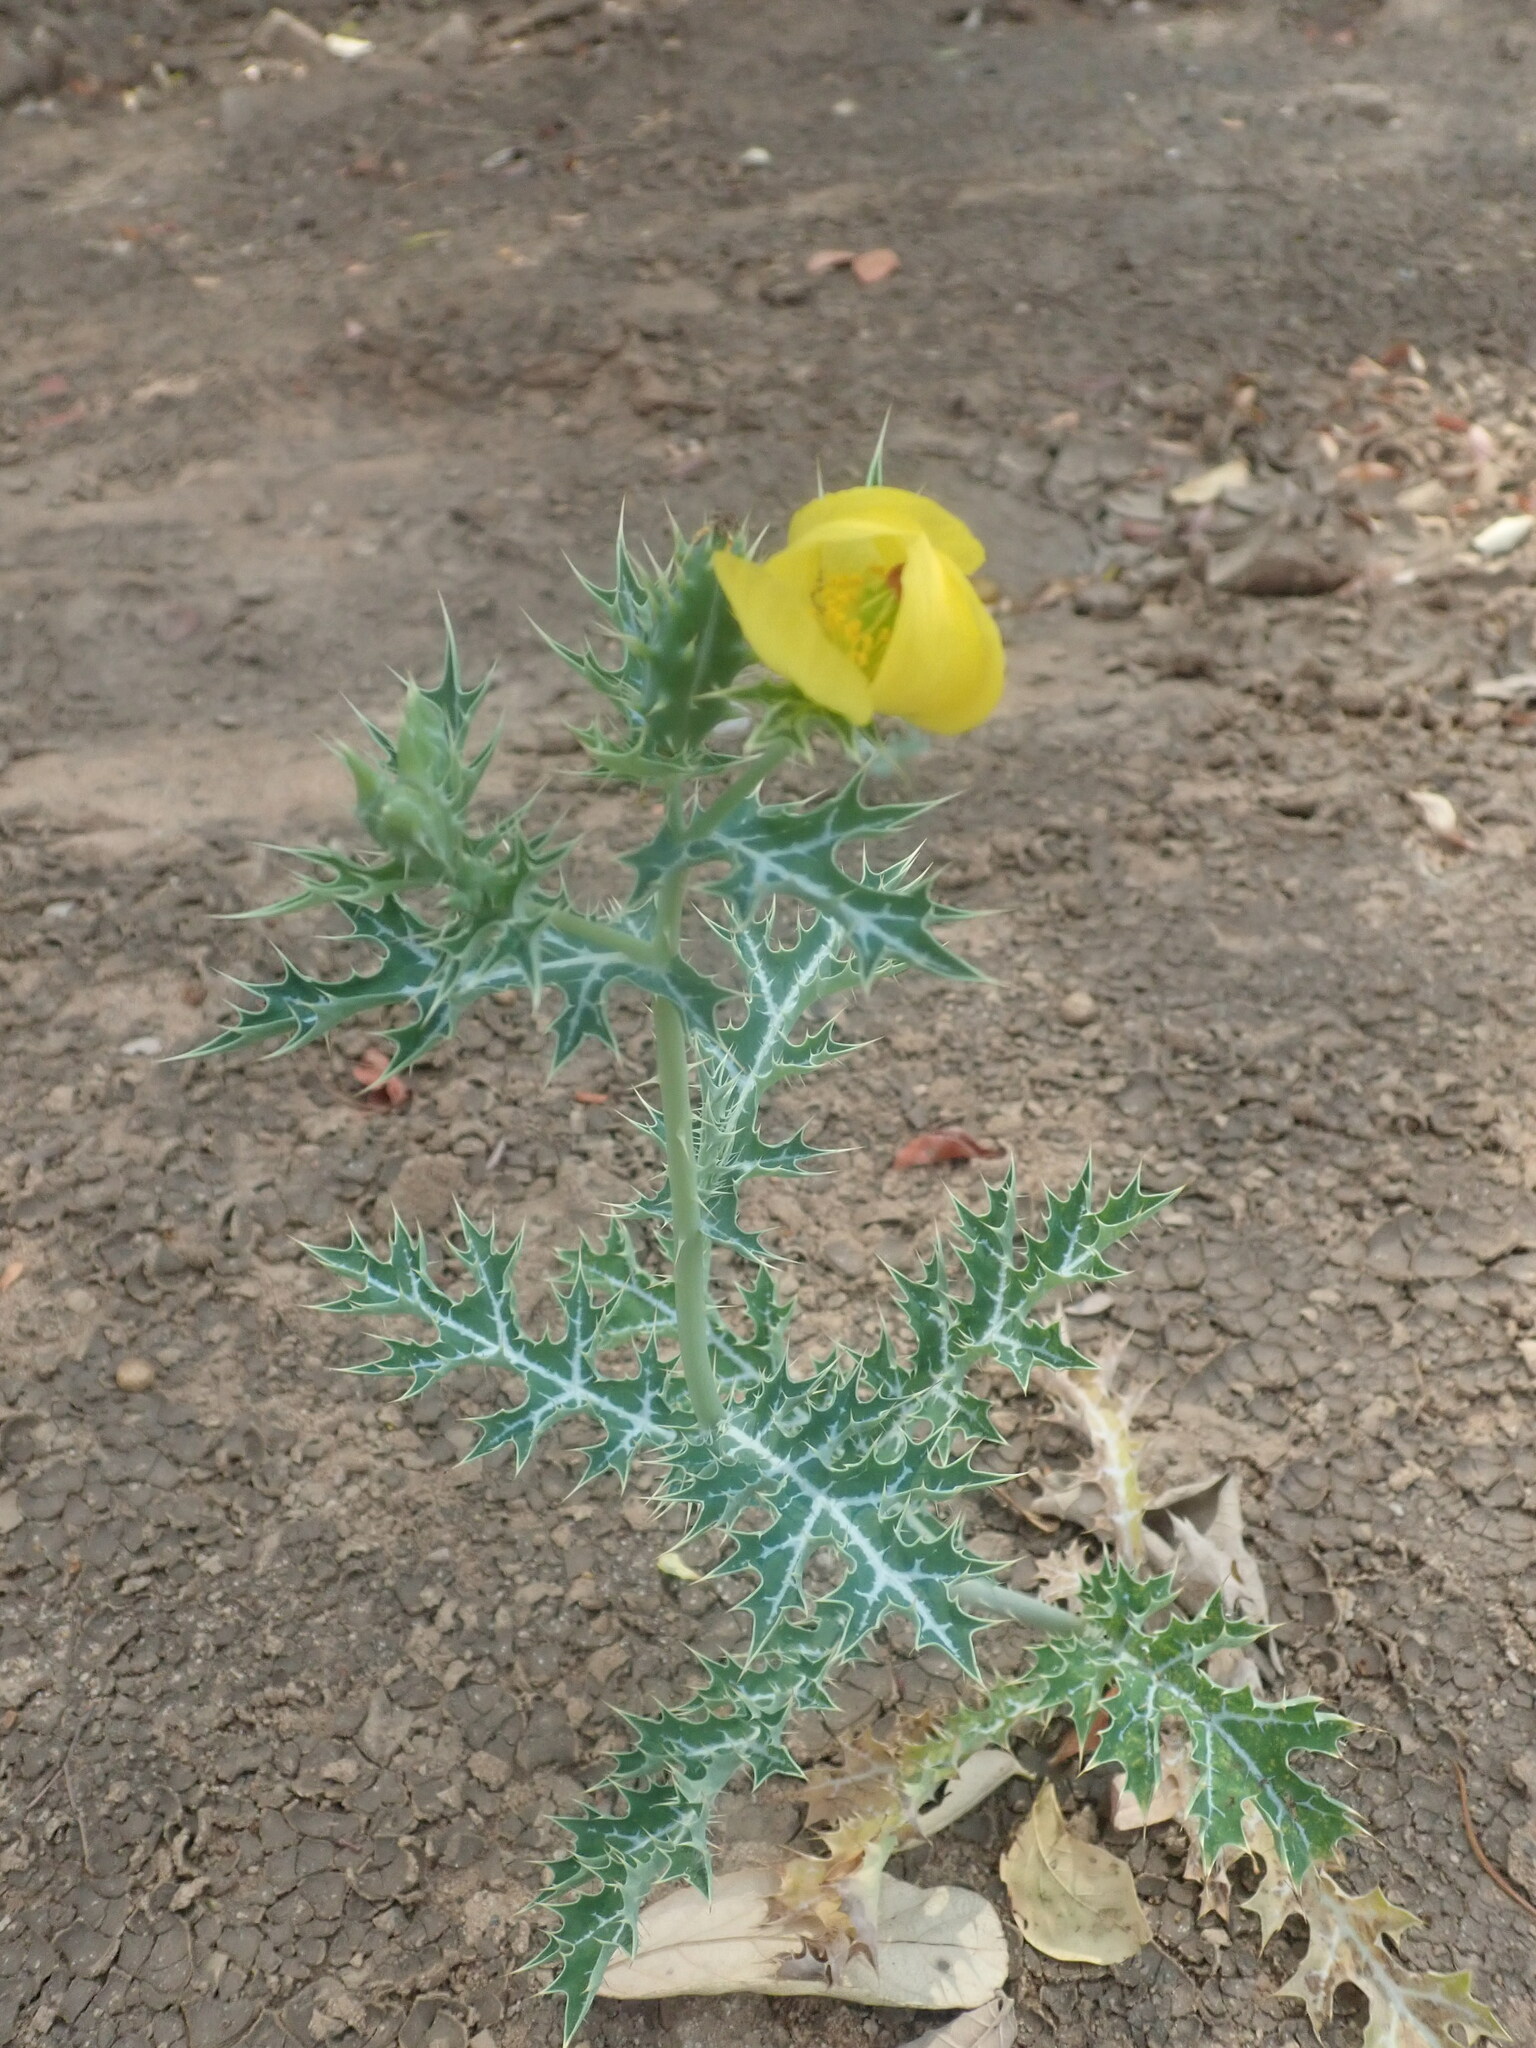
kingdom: Plantae
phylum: Tracheophyta
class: Magnoliopsida
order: Ranunculales
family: Papaveraceae
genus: Argemone
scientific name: Argemone mexicana
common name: Mexican poppy
